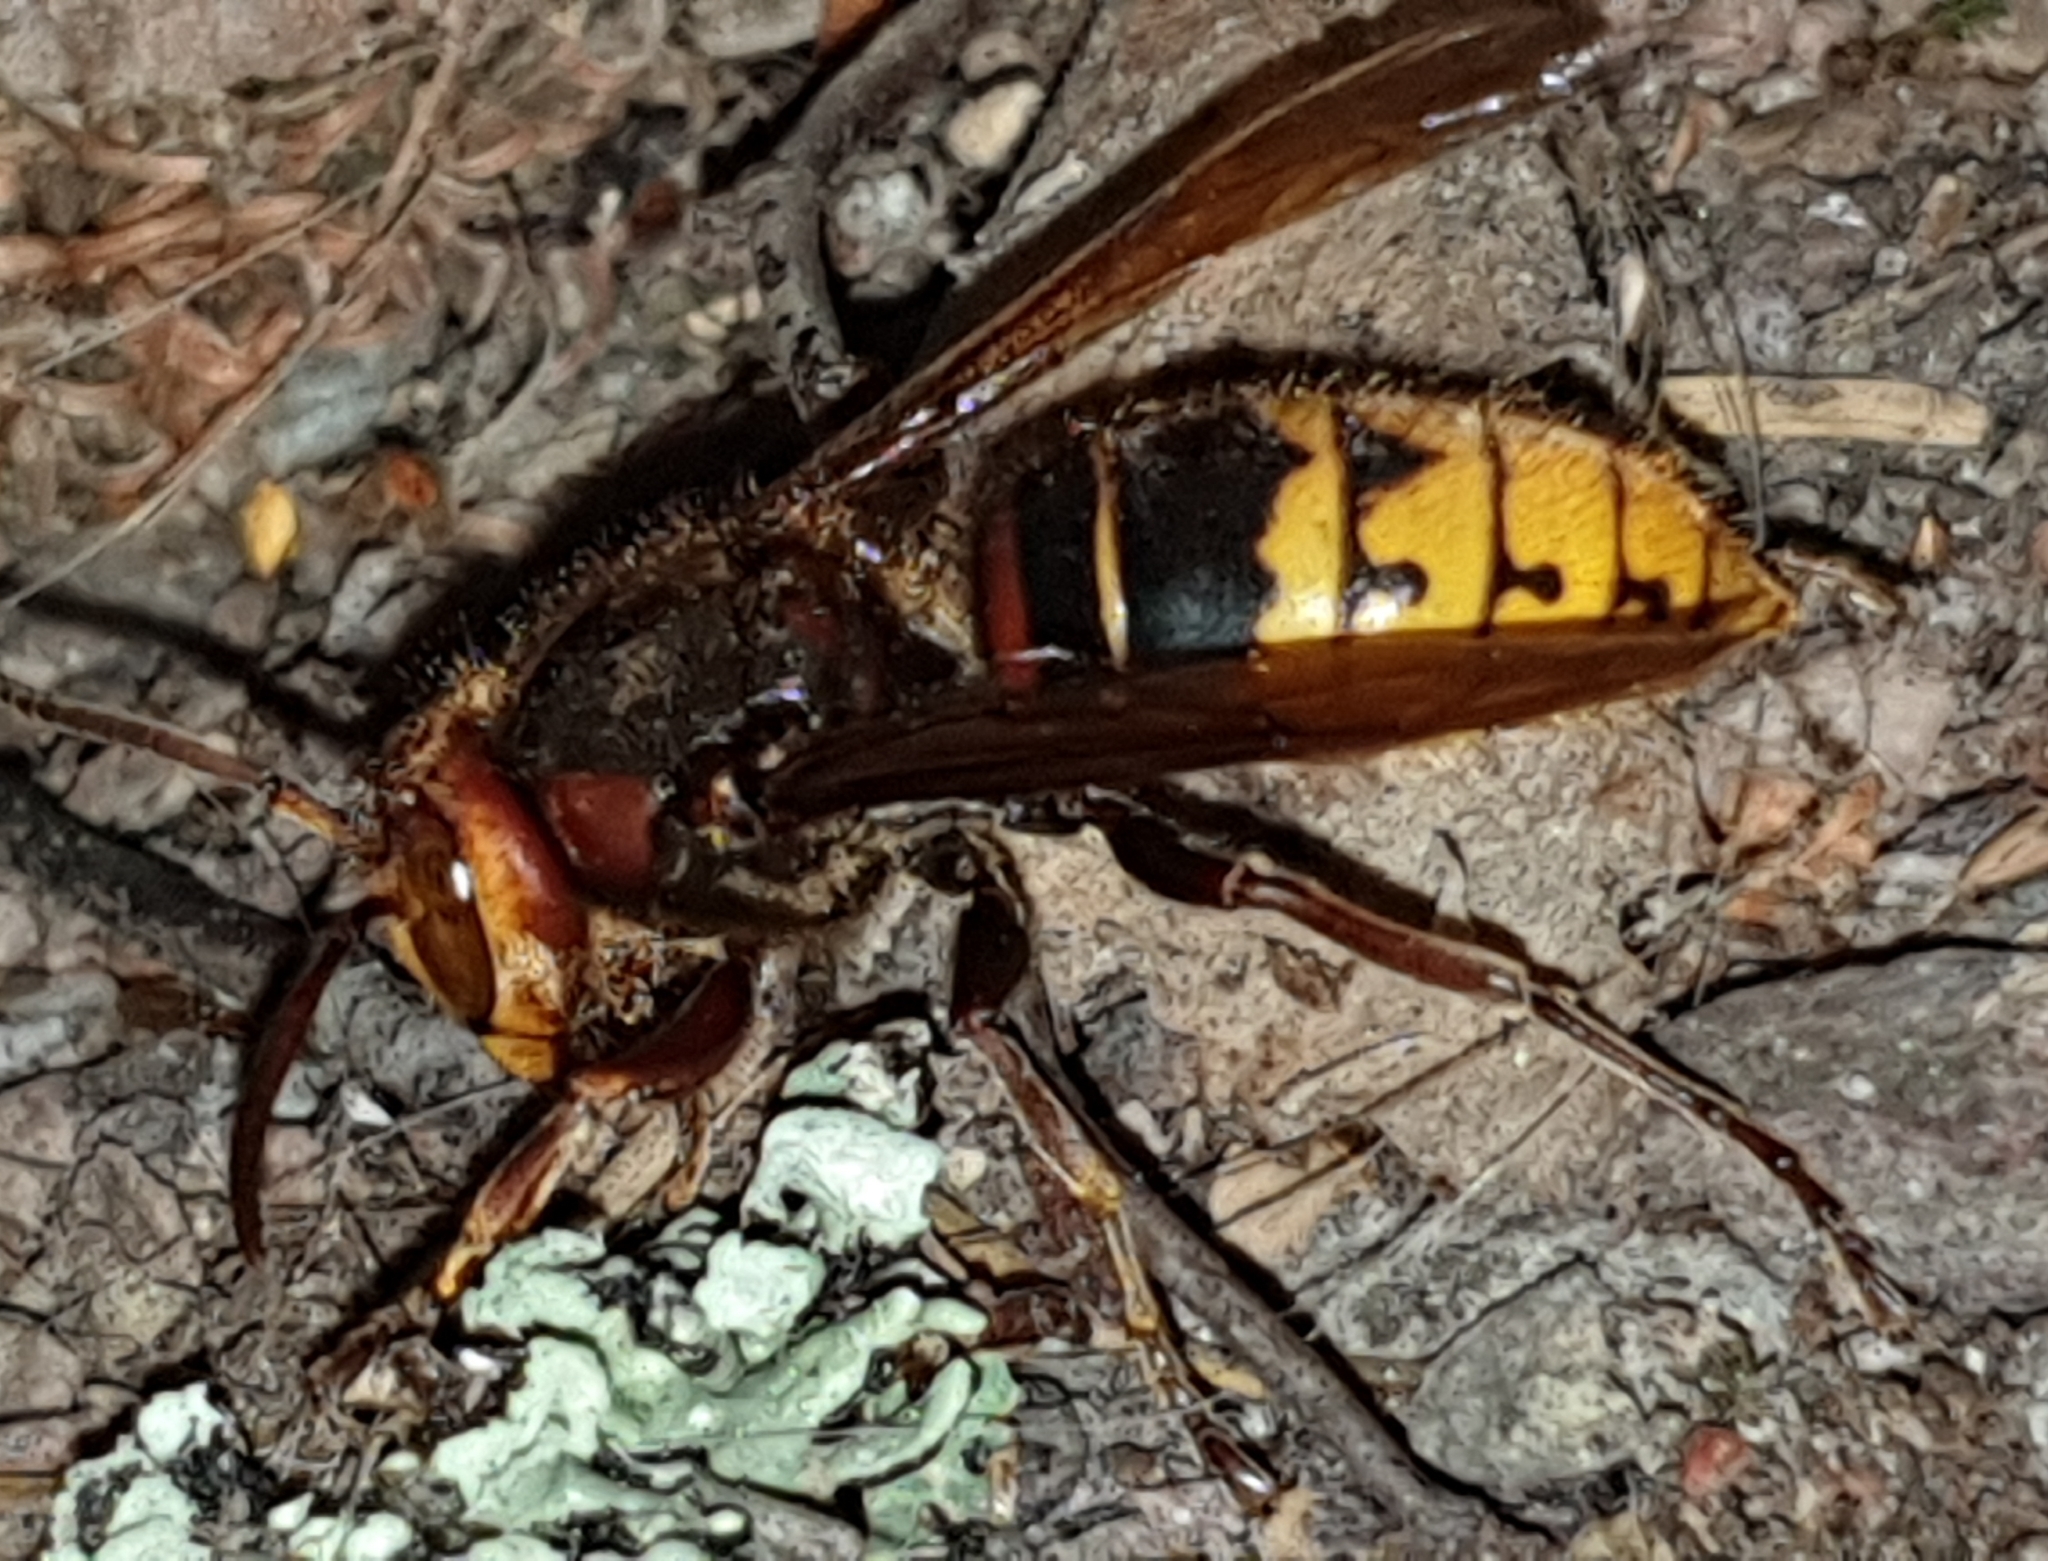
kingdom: Animalia
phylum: Arthropoda
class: Insecta
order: Hymenoptera
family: Vespidae
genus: Vespa
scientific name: Vespa crabro
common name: Hornet
